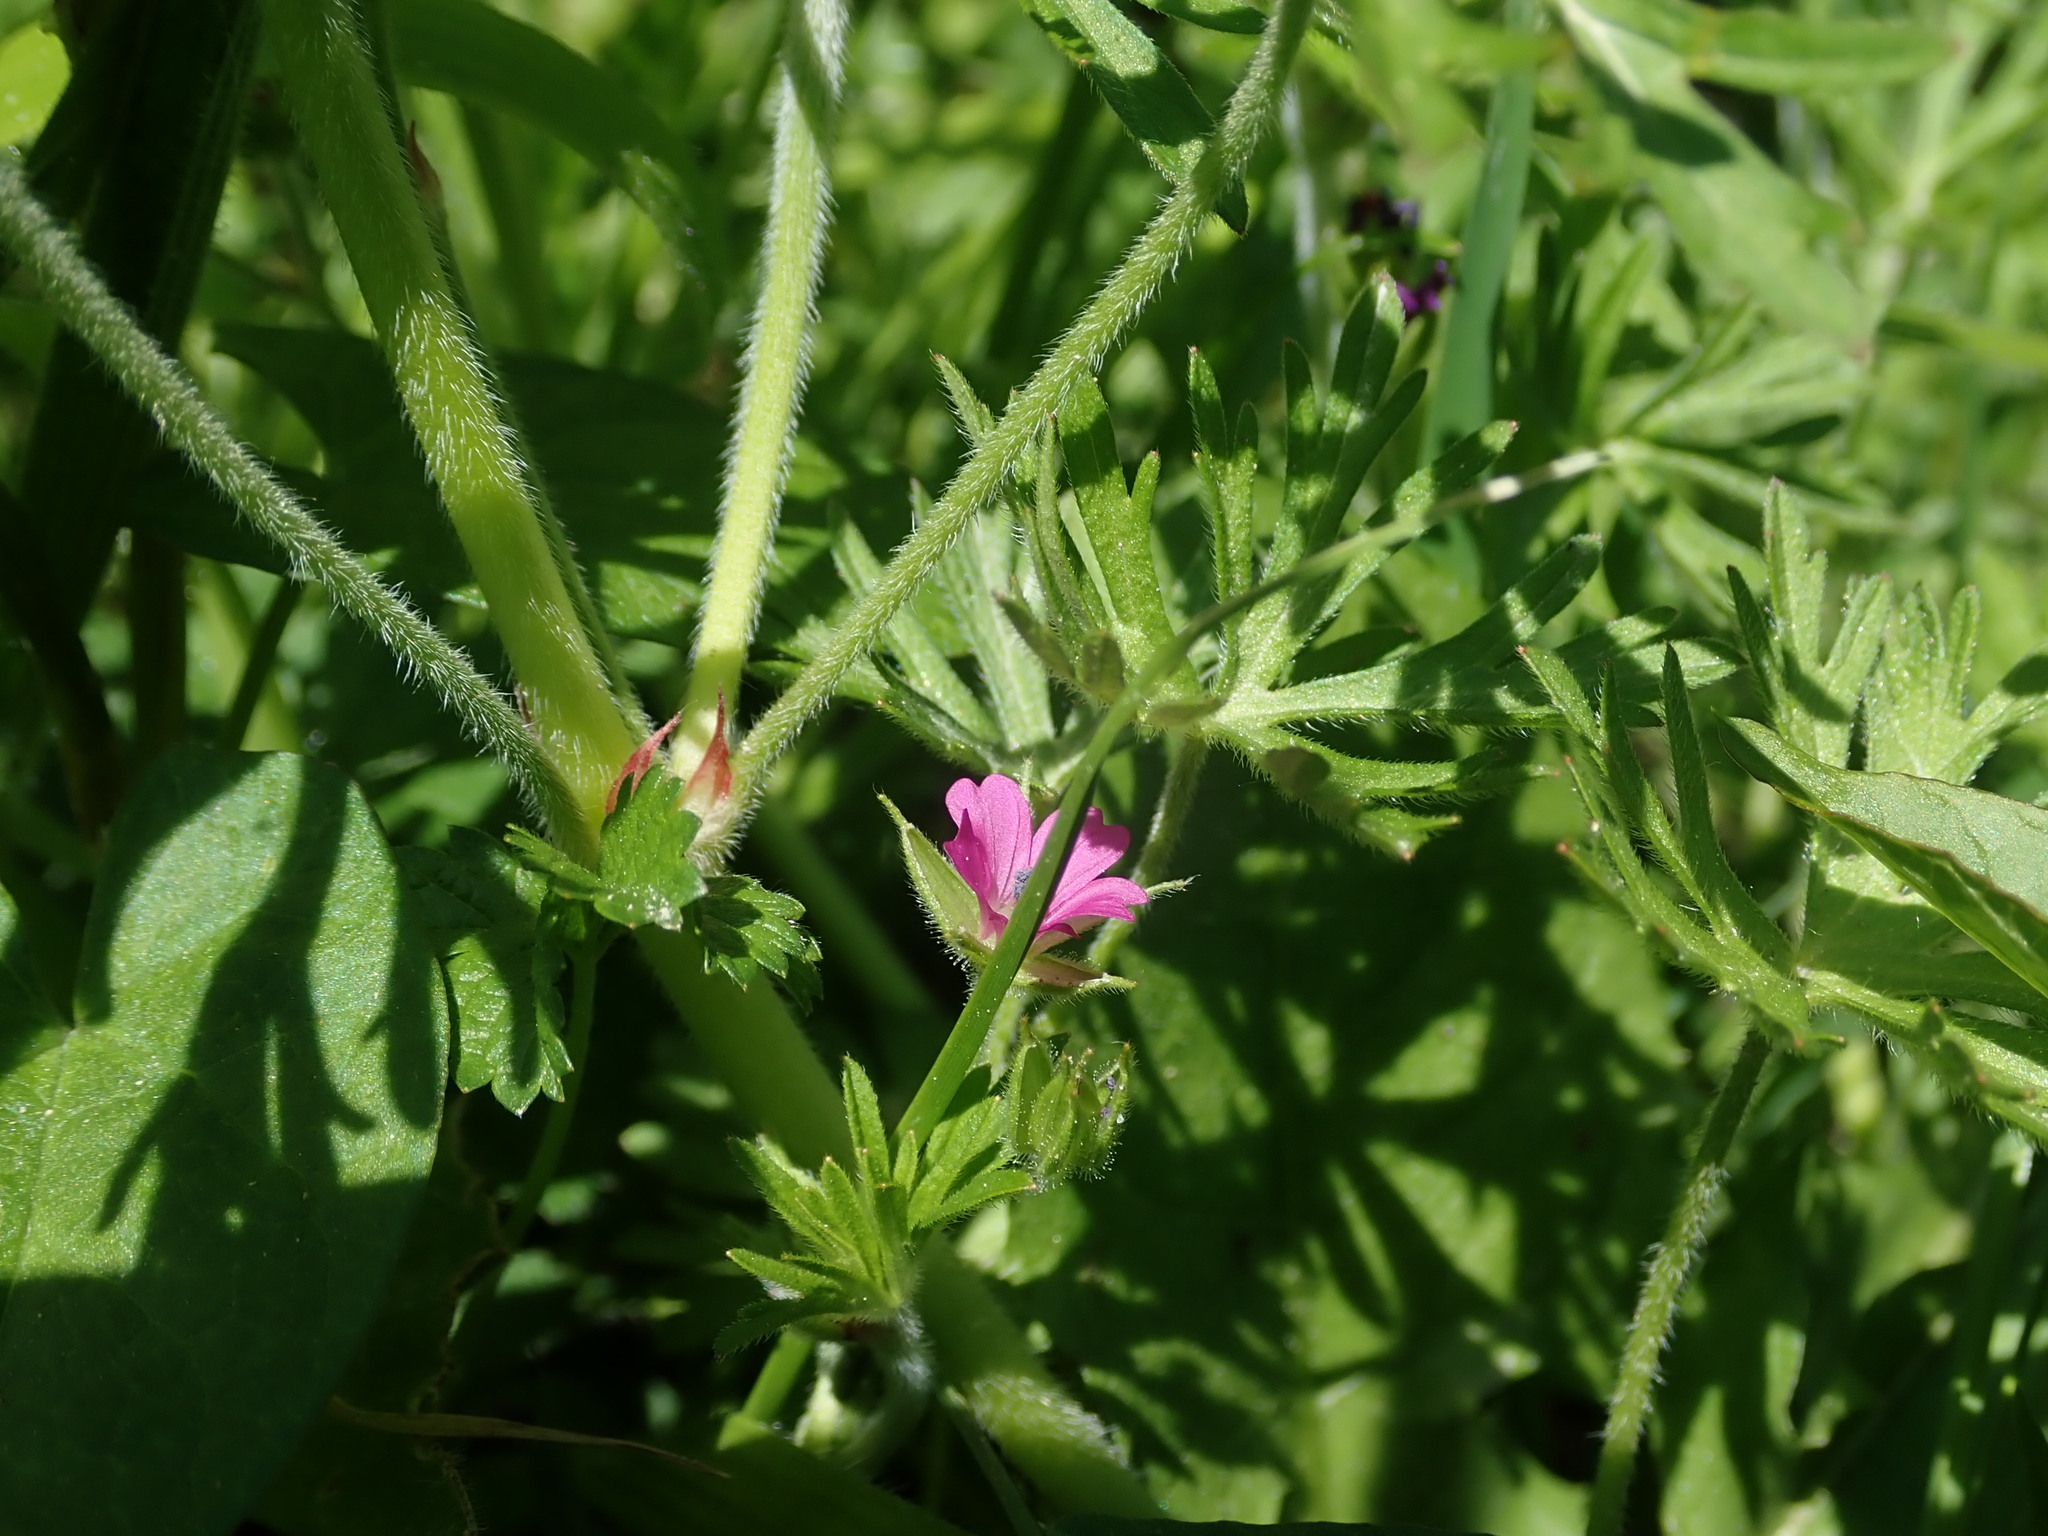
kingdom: Plantae
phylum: Tracheophyta
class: Magnoliopsida
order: Geraniales
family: Geraniaceae
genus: Geranium
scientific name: Geranium dissectum
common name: Cut-leaved crane's-bill
